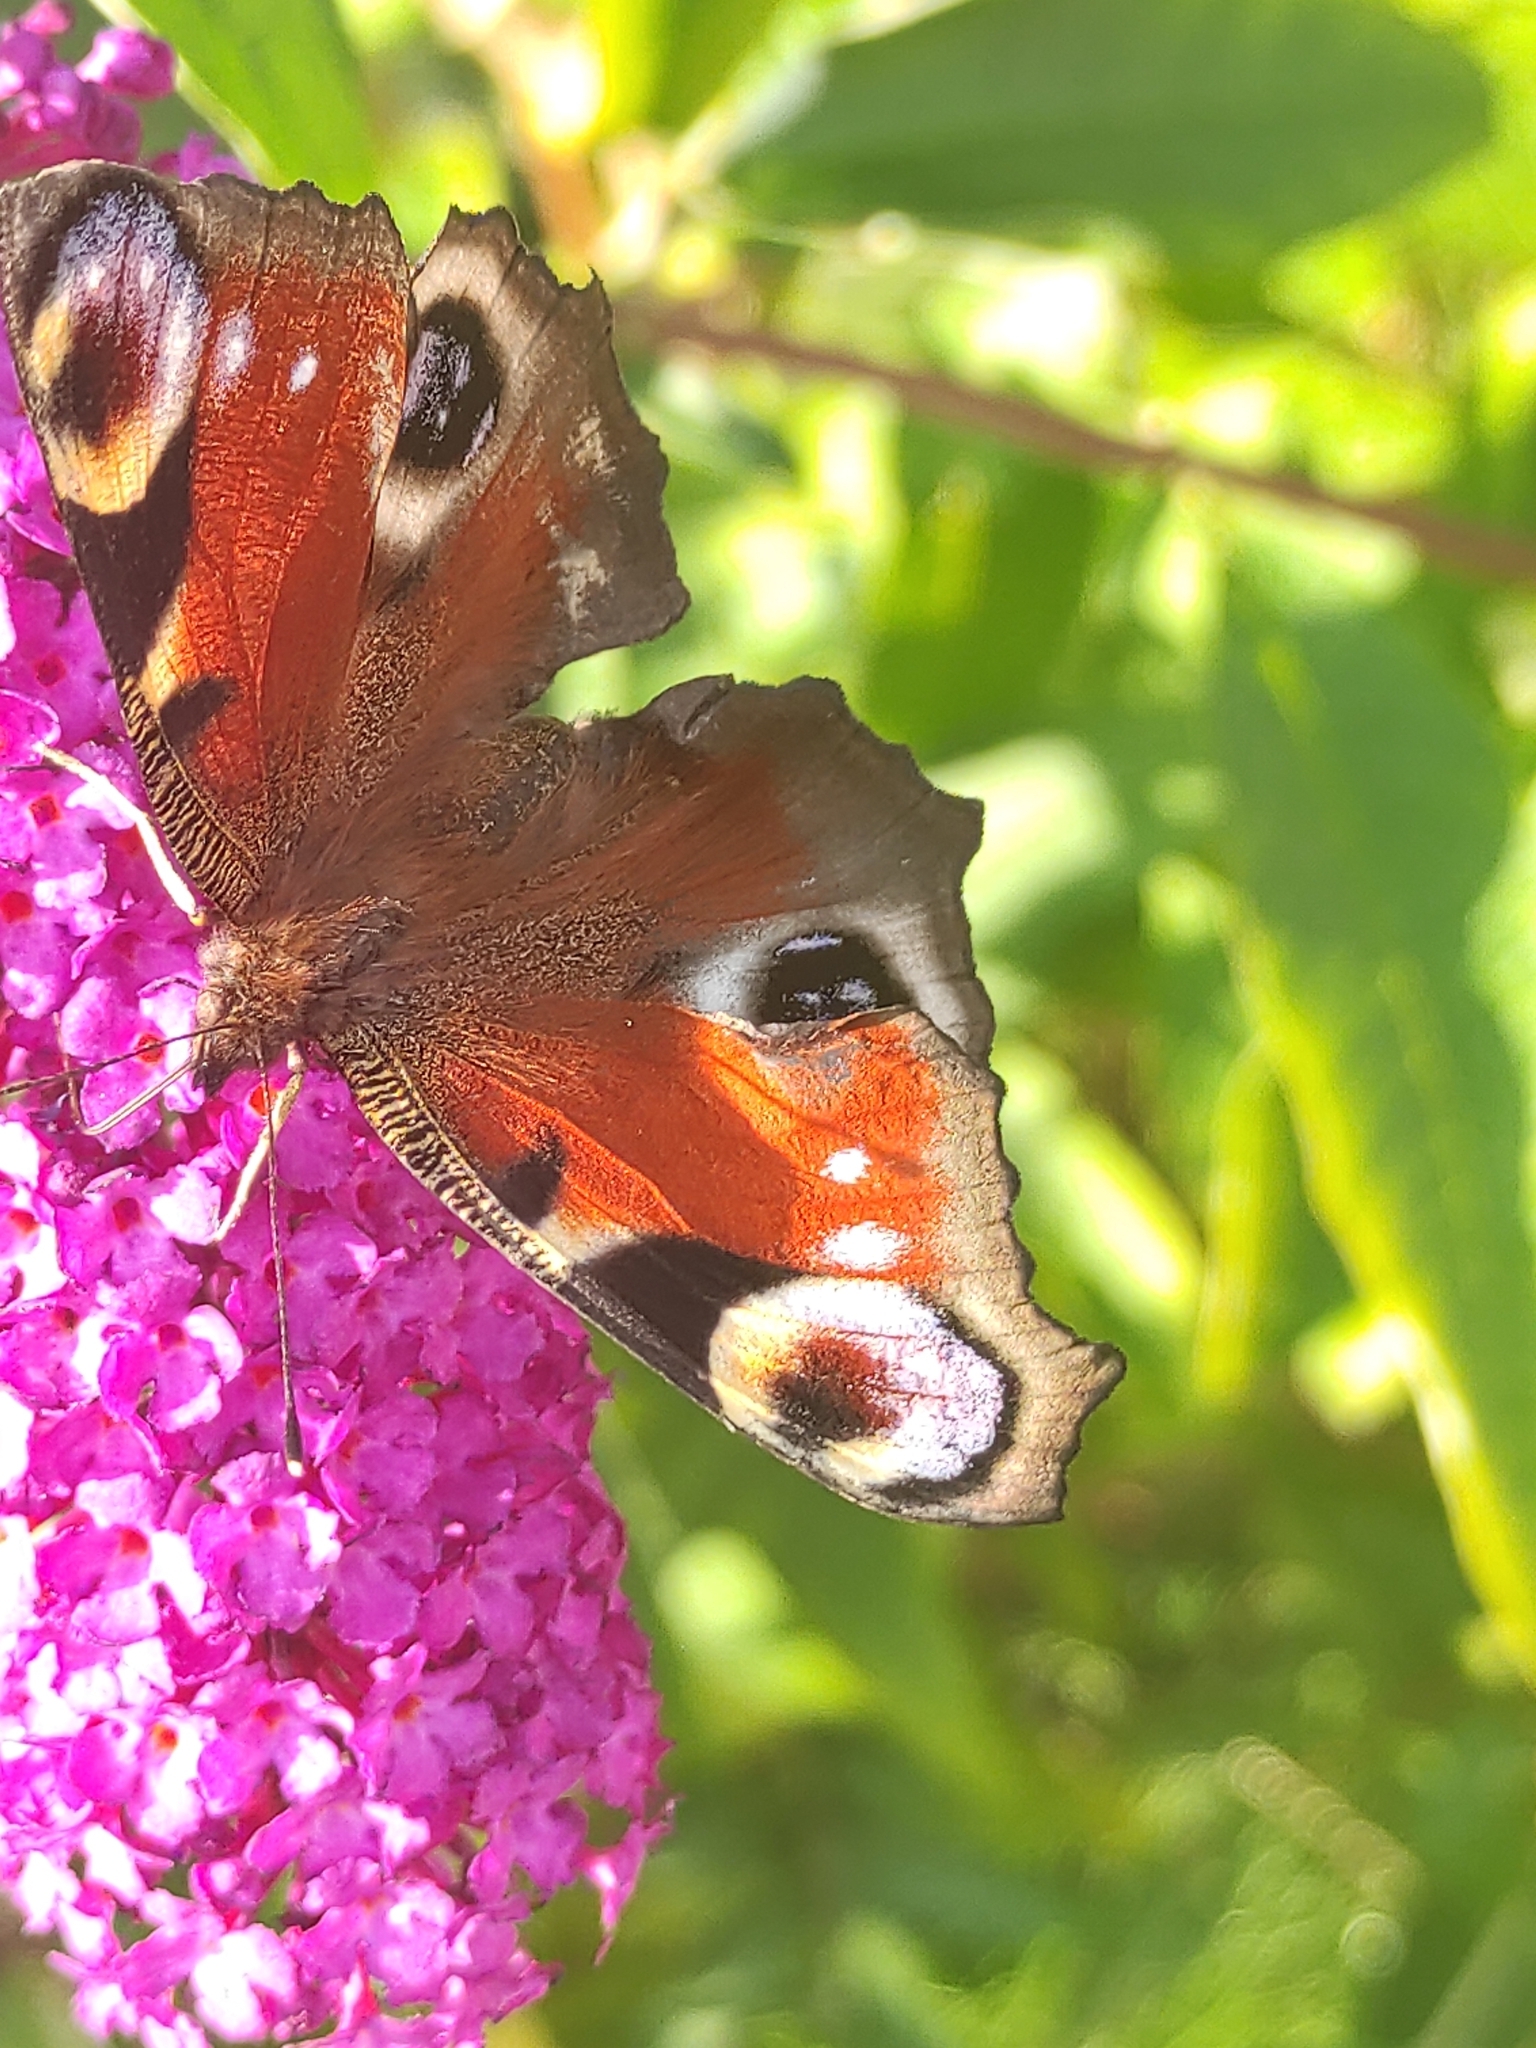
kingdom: Animalia
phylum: Arthropoda
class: Insecta
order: Lepidoptera
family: Nymphalidae
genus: Aglais
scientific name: Aglais io
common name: Peacock
